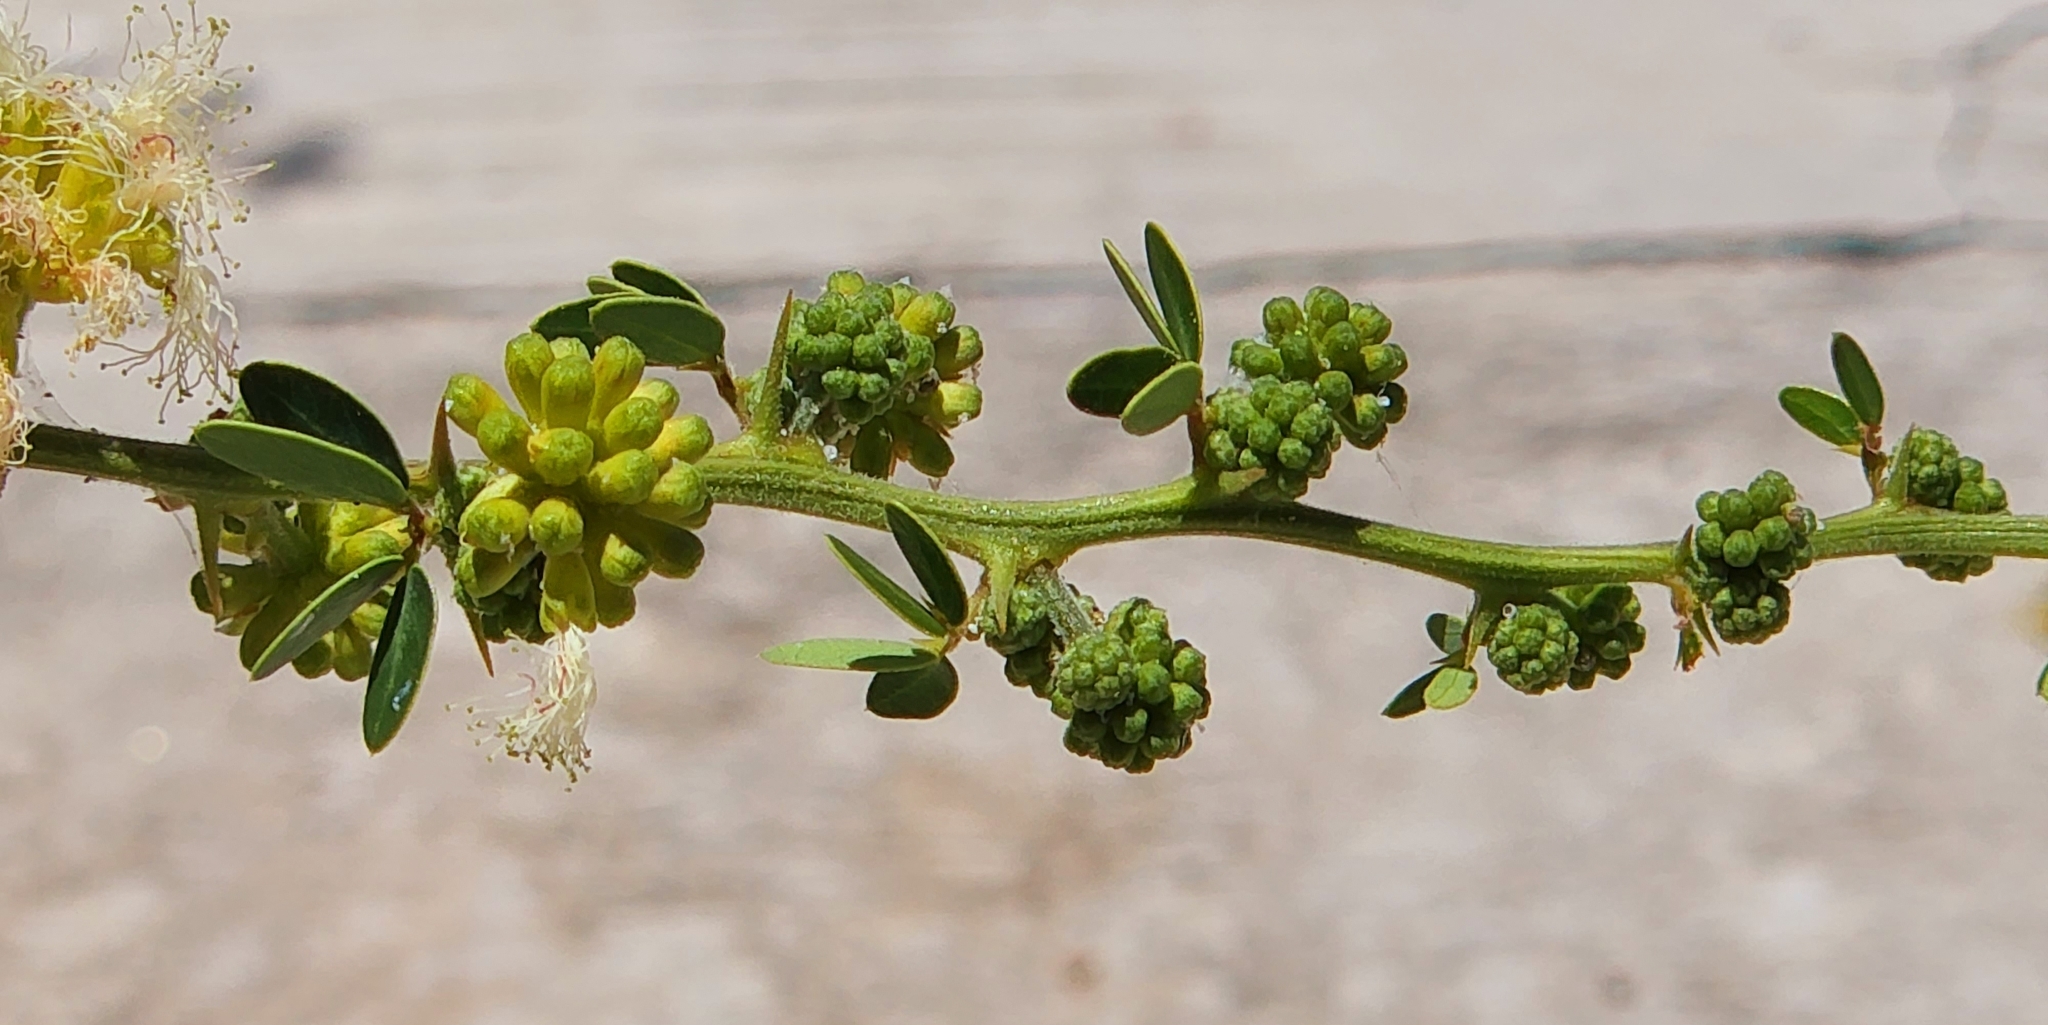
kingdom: Plantae
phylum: Tracheophyta
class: Magnoliopsida
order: Fabales
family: Fabaceae
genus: Pithecellobium
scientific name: Pithecellobium dulce
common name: Monkeypod
